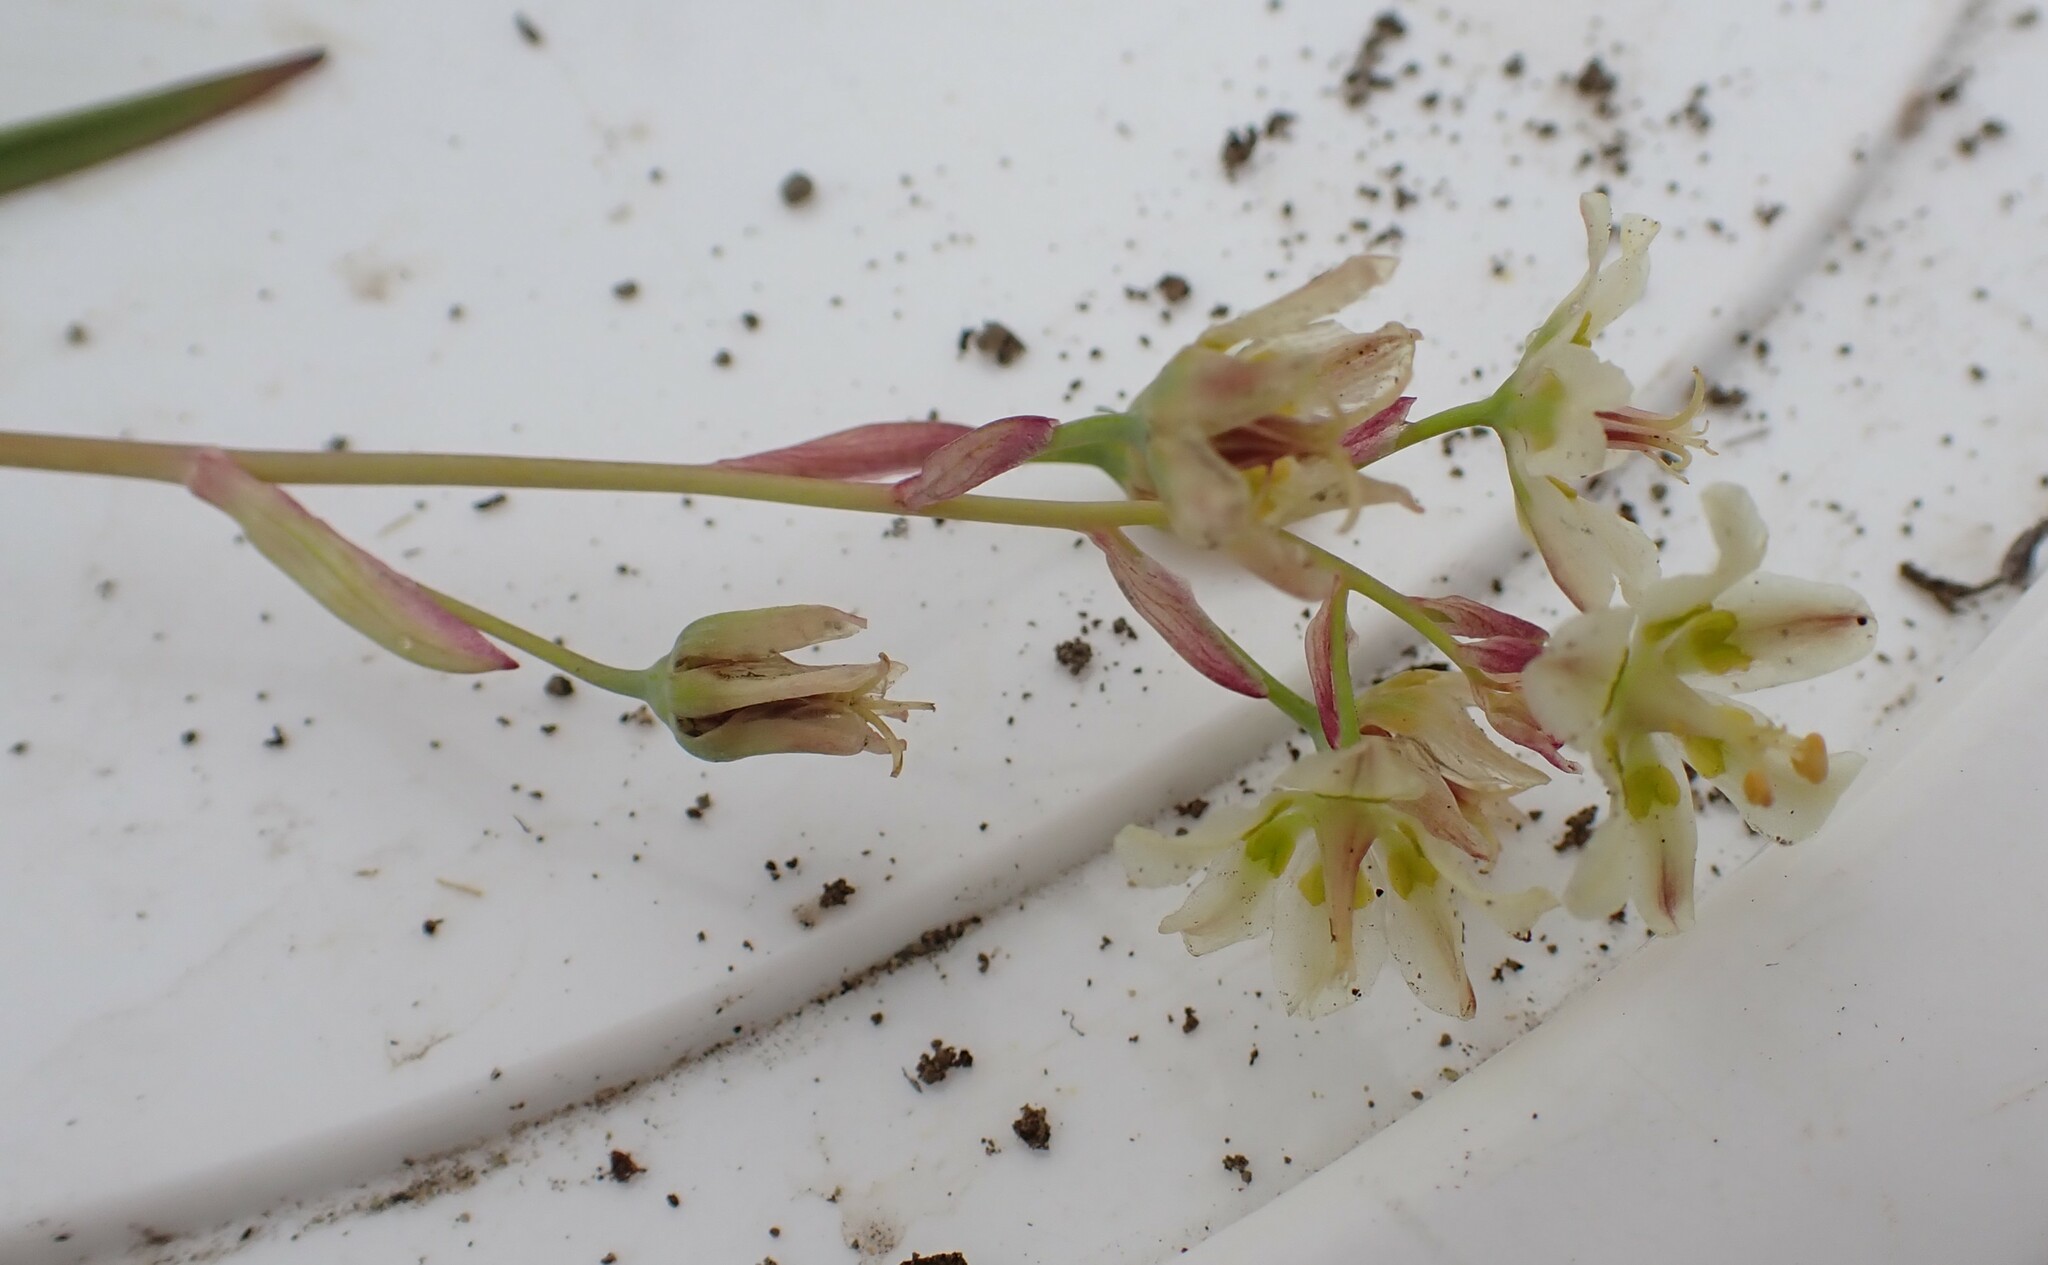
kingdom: Plantae
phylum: Tracheophyta
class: Liliopsida
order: Liliales
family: Melanthiaceae
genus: Anticlea
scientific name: Anticlea elegans
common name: Mountain death camas
